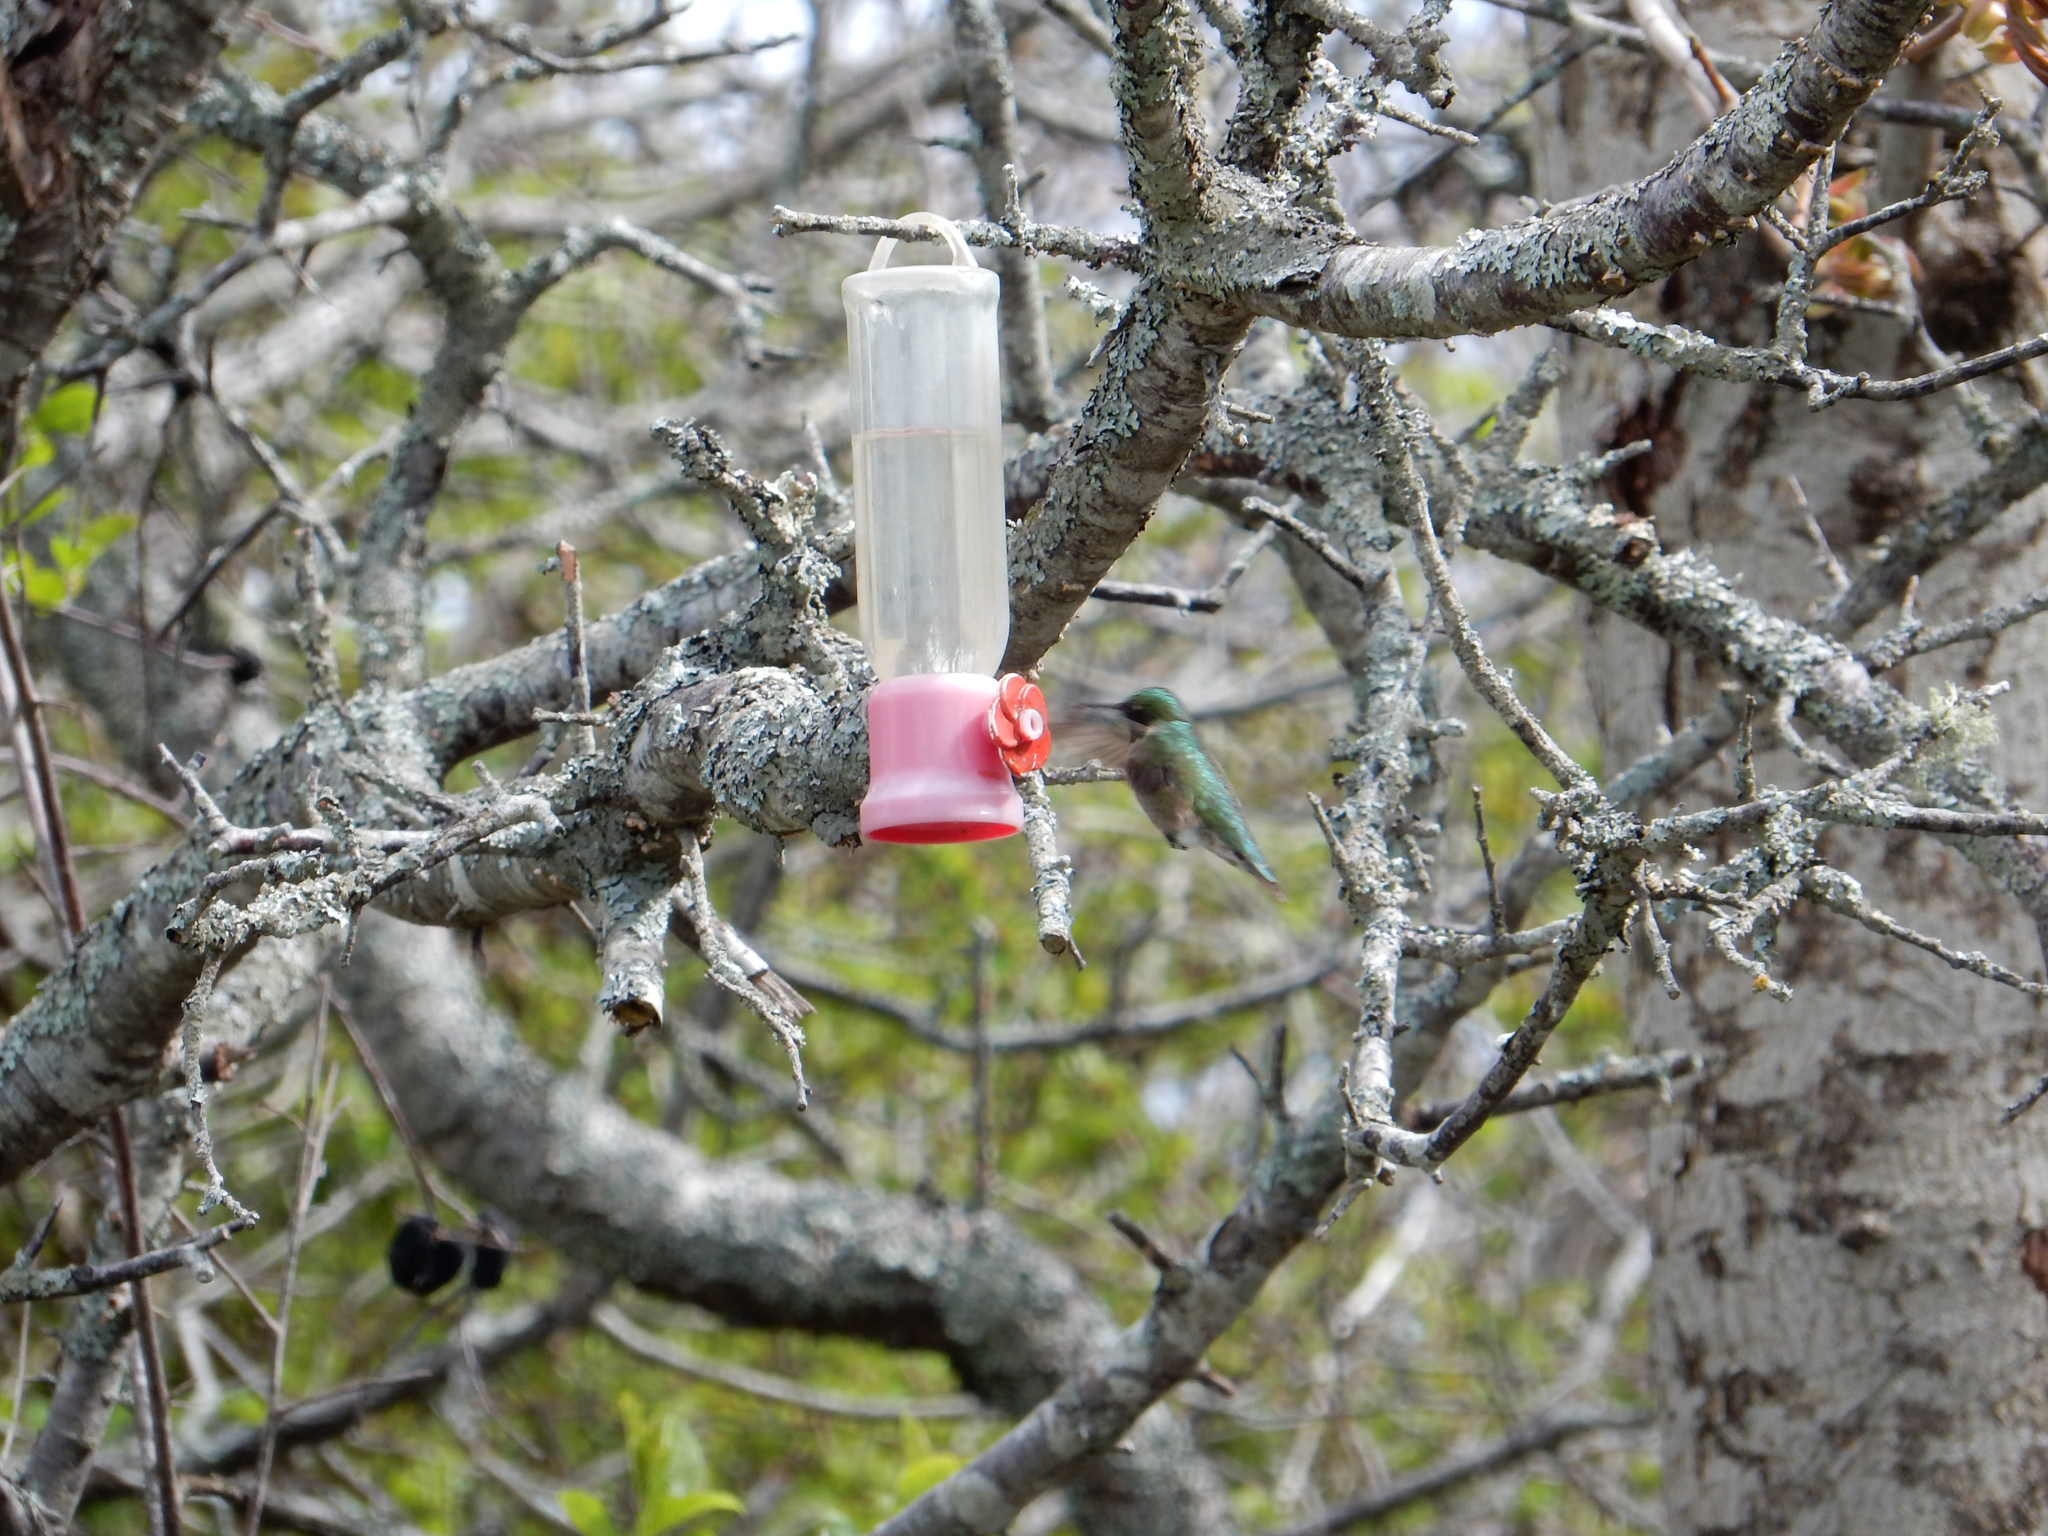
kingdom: Animalia
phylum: Chordata
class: Aves
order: Apodiformes
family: Trochilidae
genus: Archilochus
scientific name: Archilochus colubris
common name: Ruby-throated hummingbird
